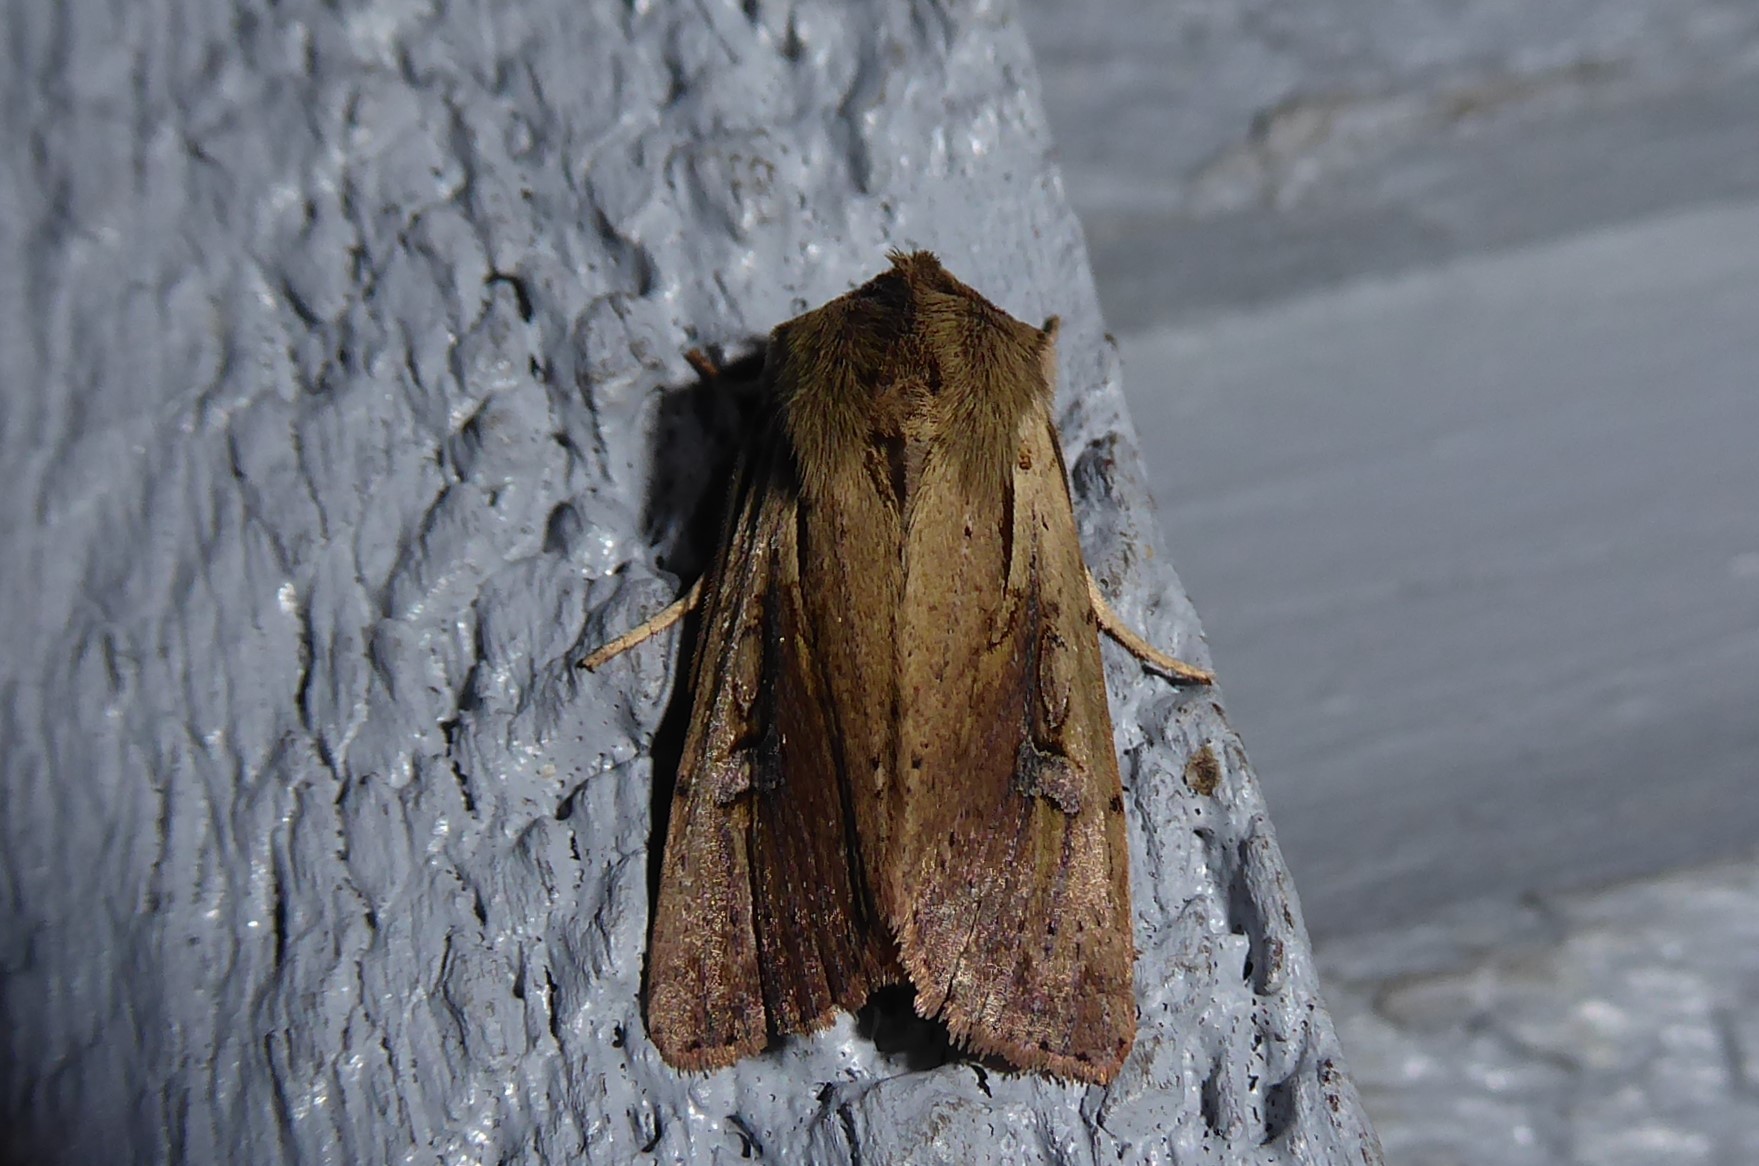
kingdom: Animalia
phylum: Arthropoda
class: Insecta
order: Lepidoptera
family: Noctuidae
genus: Ichneutica
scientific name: Ichneutica atristriga
